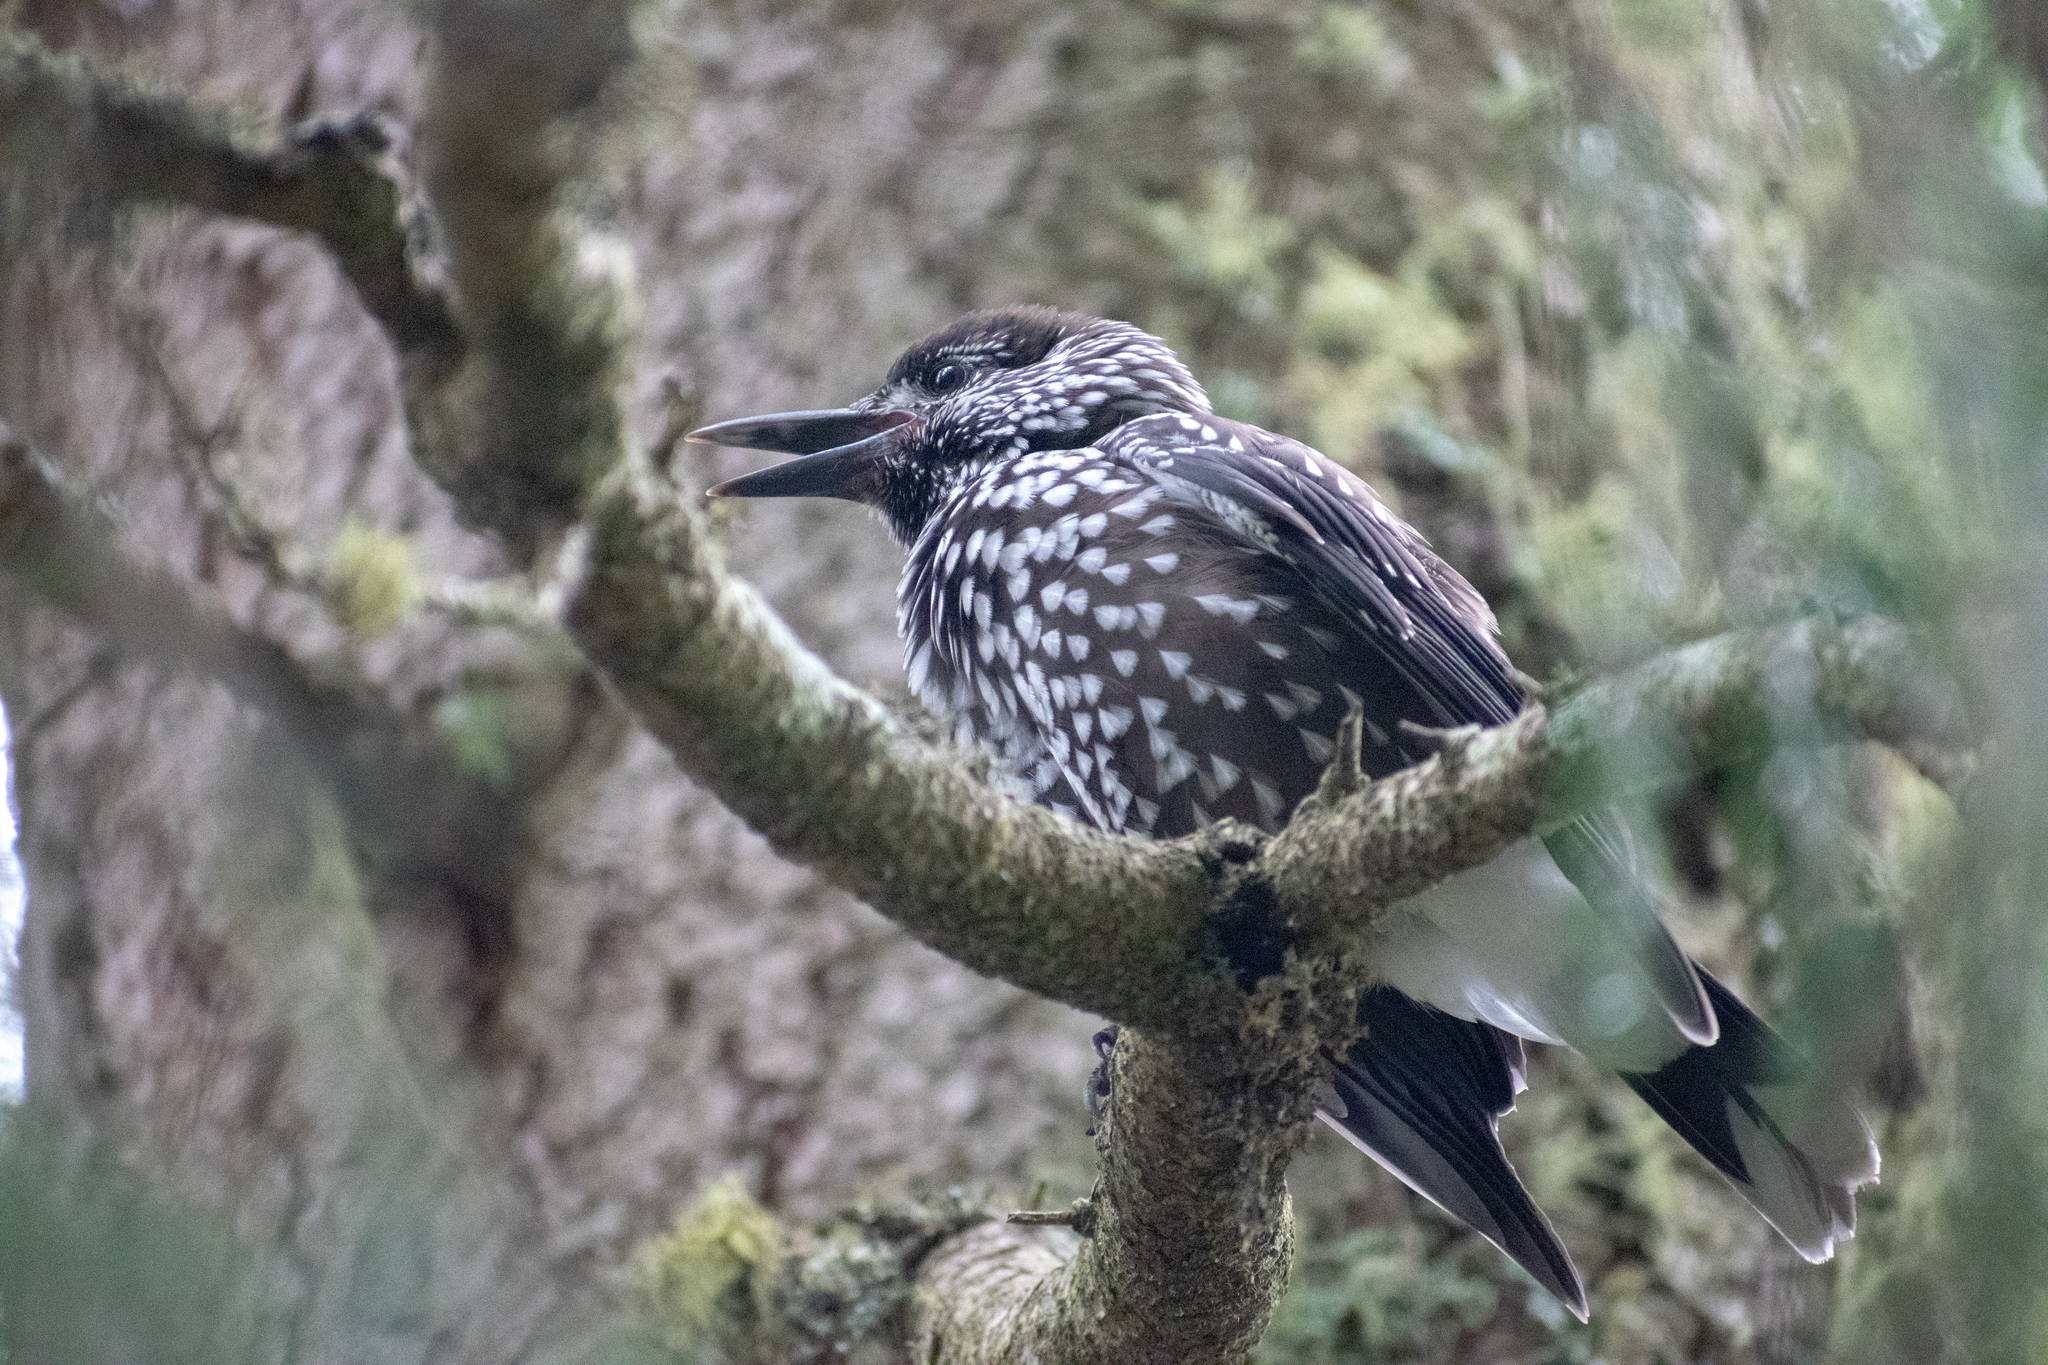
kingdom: Animalia
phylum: Chordata
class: Aves
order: Passeriformes
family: Corvidae
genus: Nucifraga
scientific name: Nucifraga caryocatactes
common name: Spotted nutcracker
